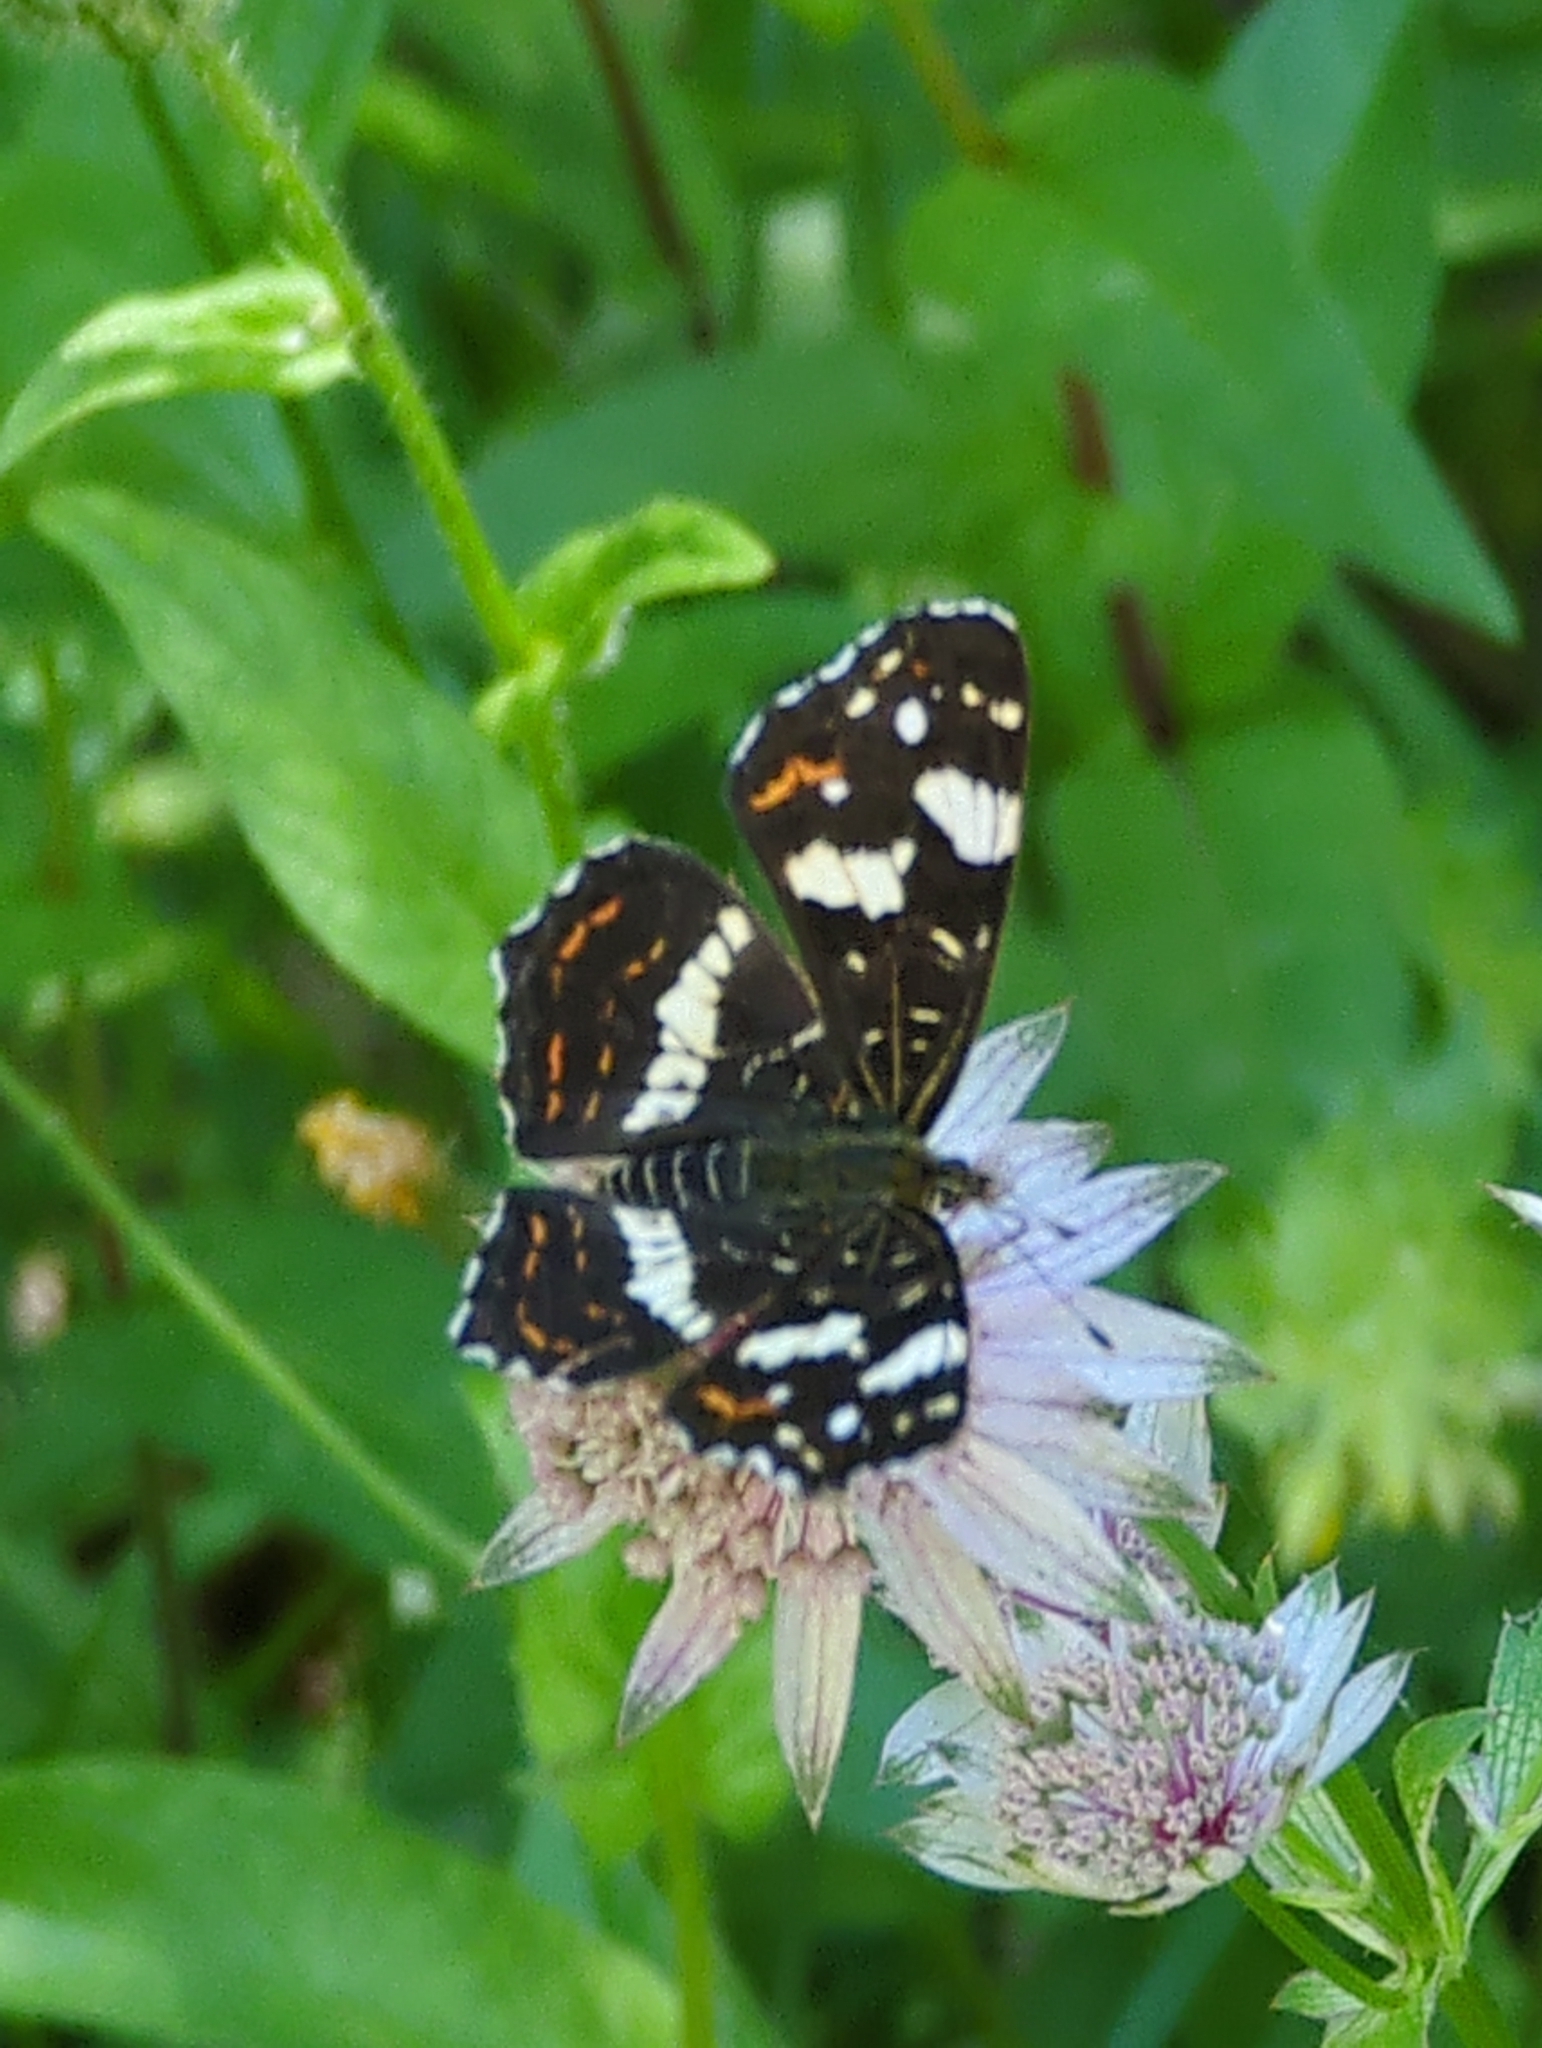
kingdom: Animalia
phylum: Arthropoda
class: Insecta
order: Lepidoptera
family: Nymphalidae
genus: Araschnia
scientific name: Araschnia levana
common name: Map butterfly
